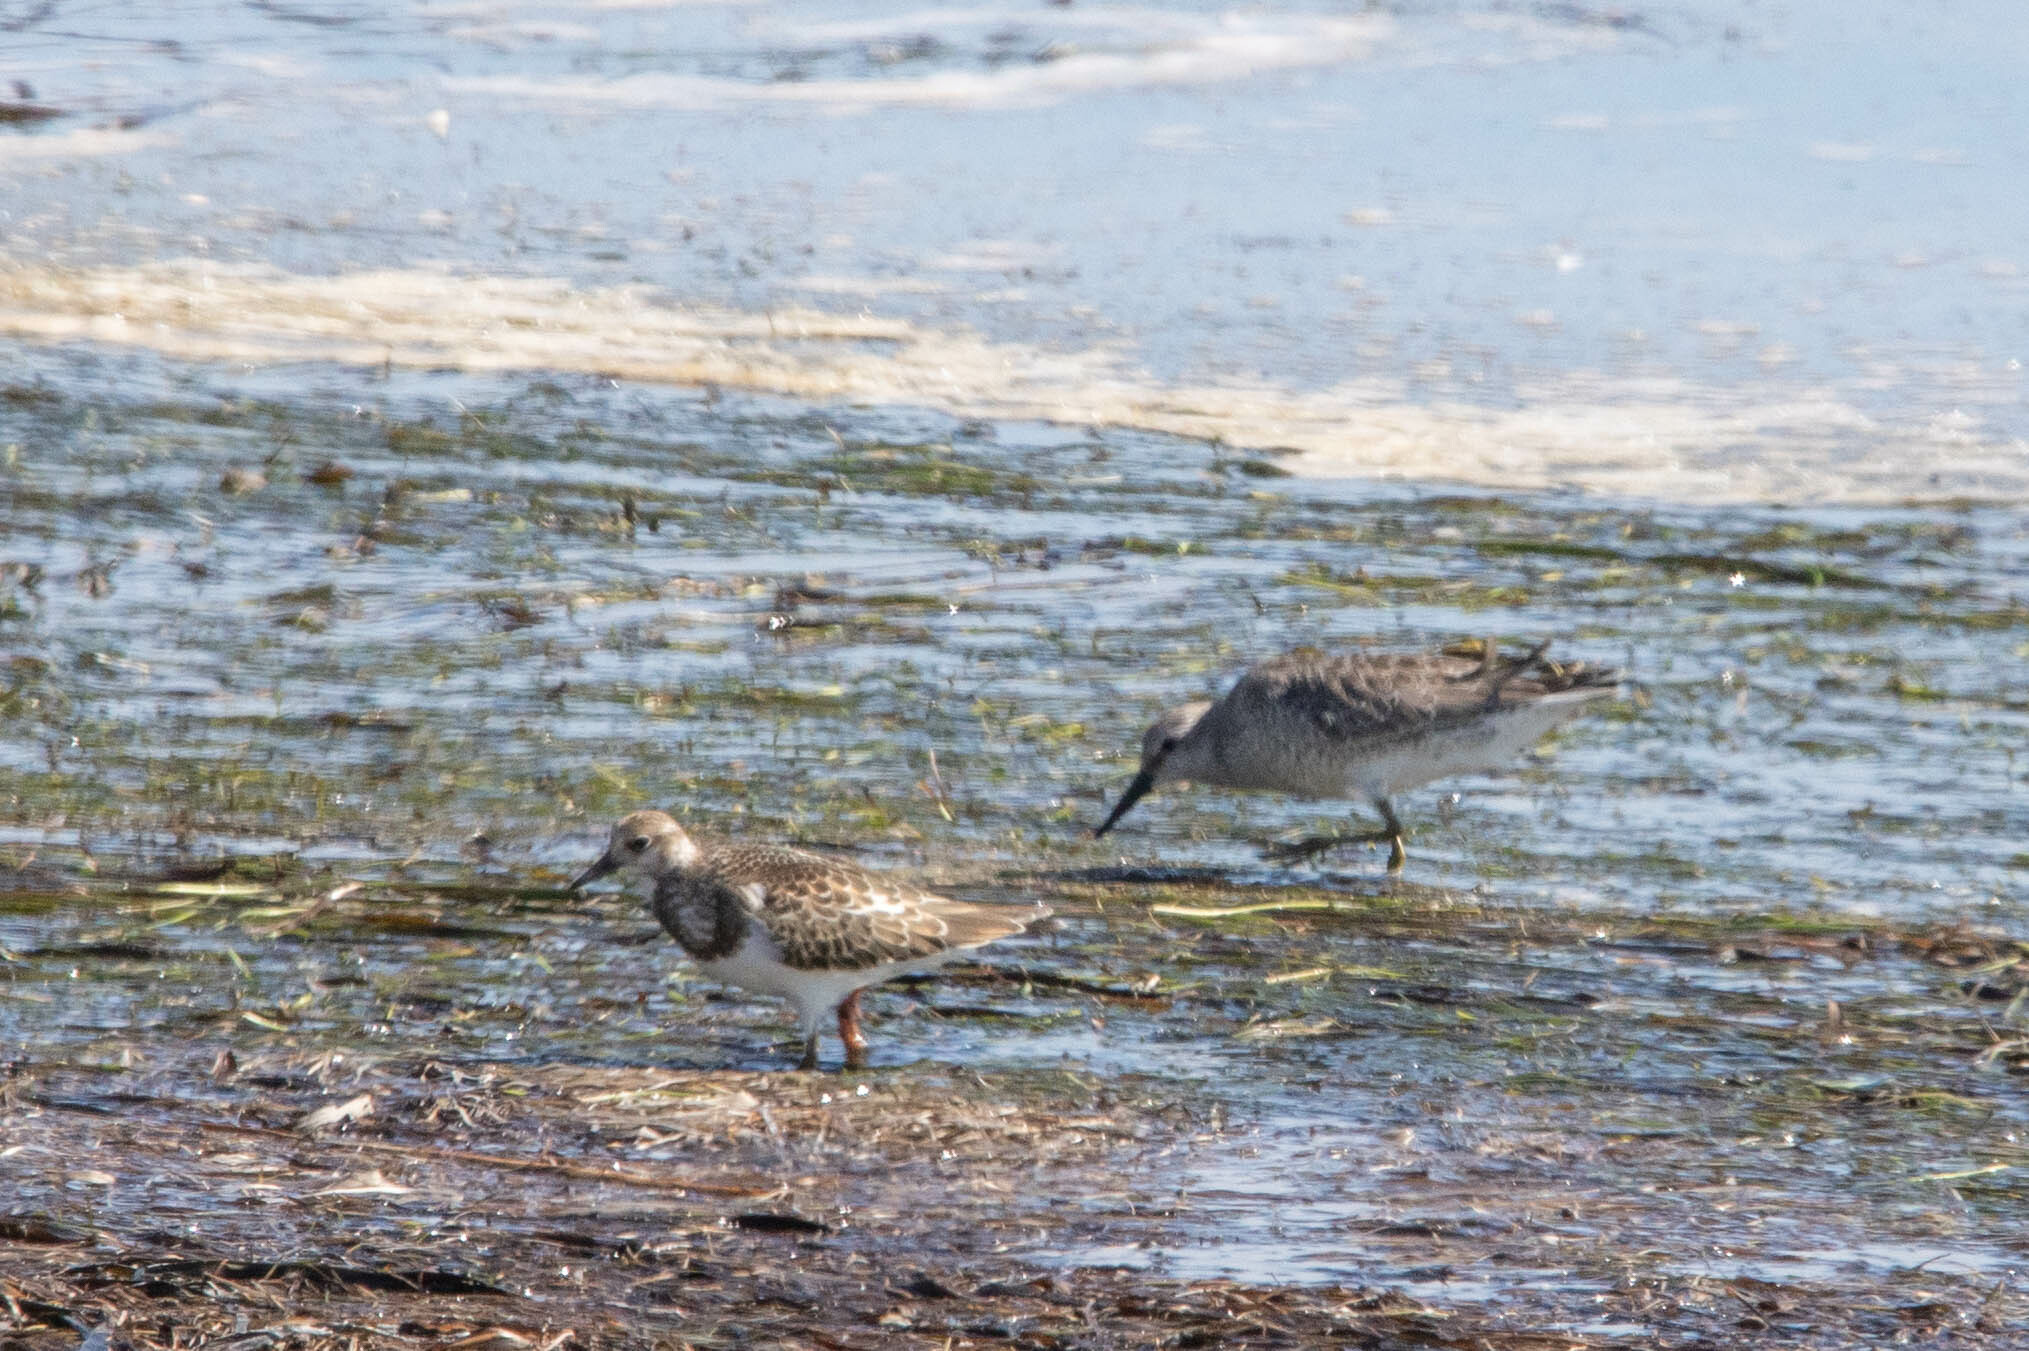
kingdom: Animalia
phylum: Chordata
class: Aves
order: Charadriiformes
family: Scolopacidae
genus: Arenaria
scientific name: Arenaria interpres
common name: Ruddy turnstone
